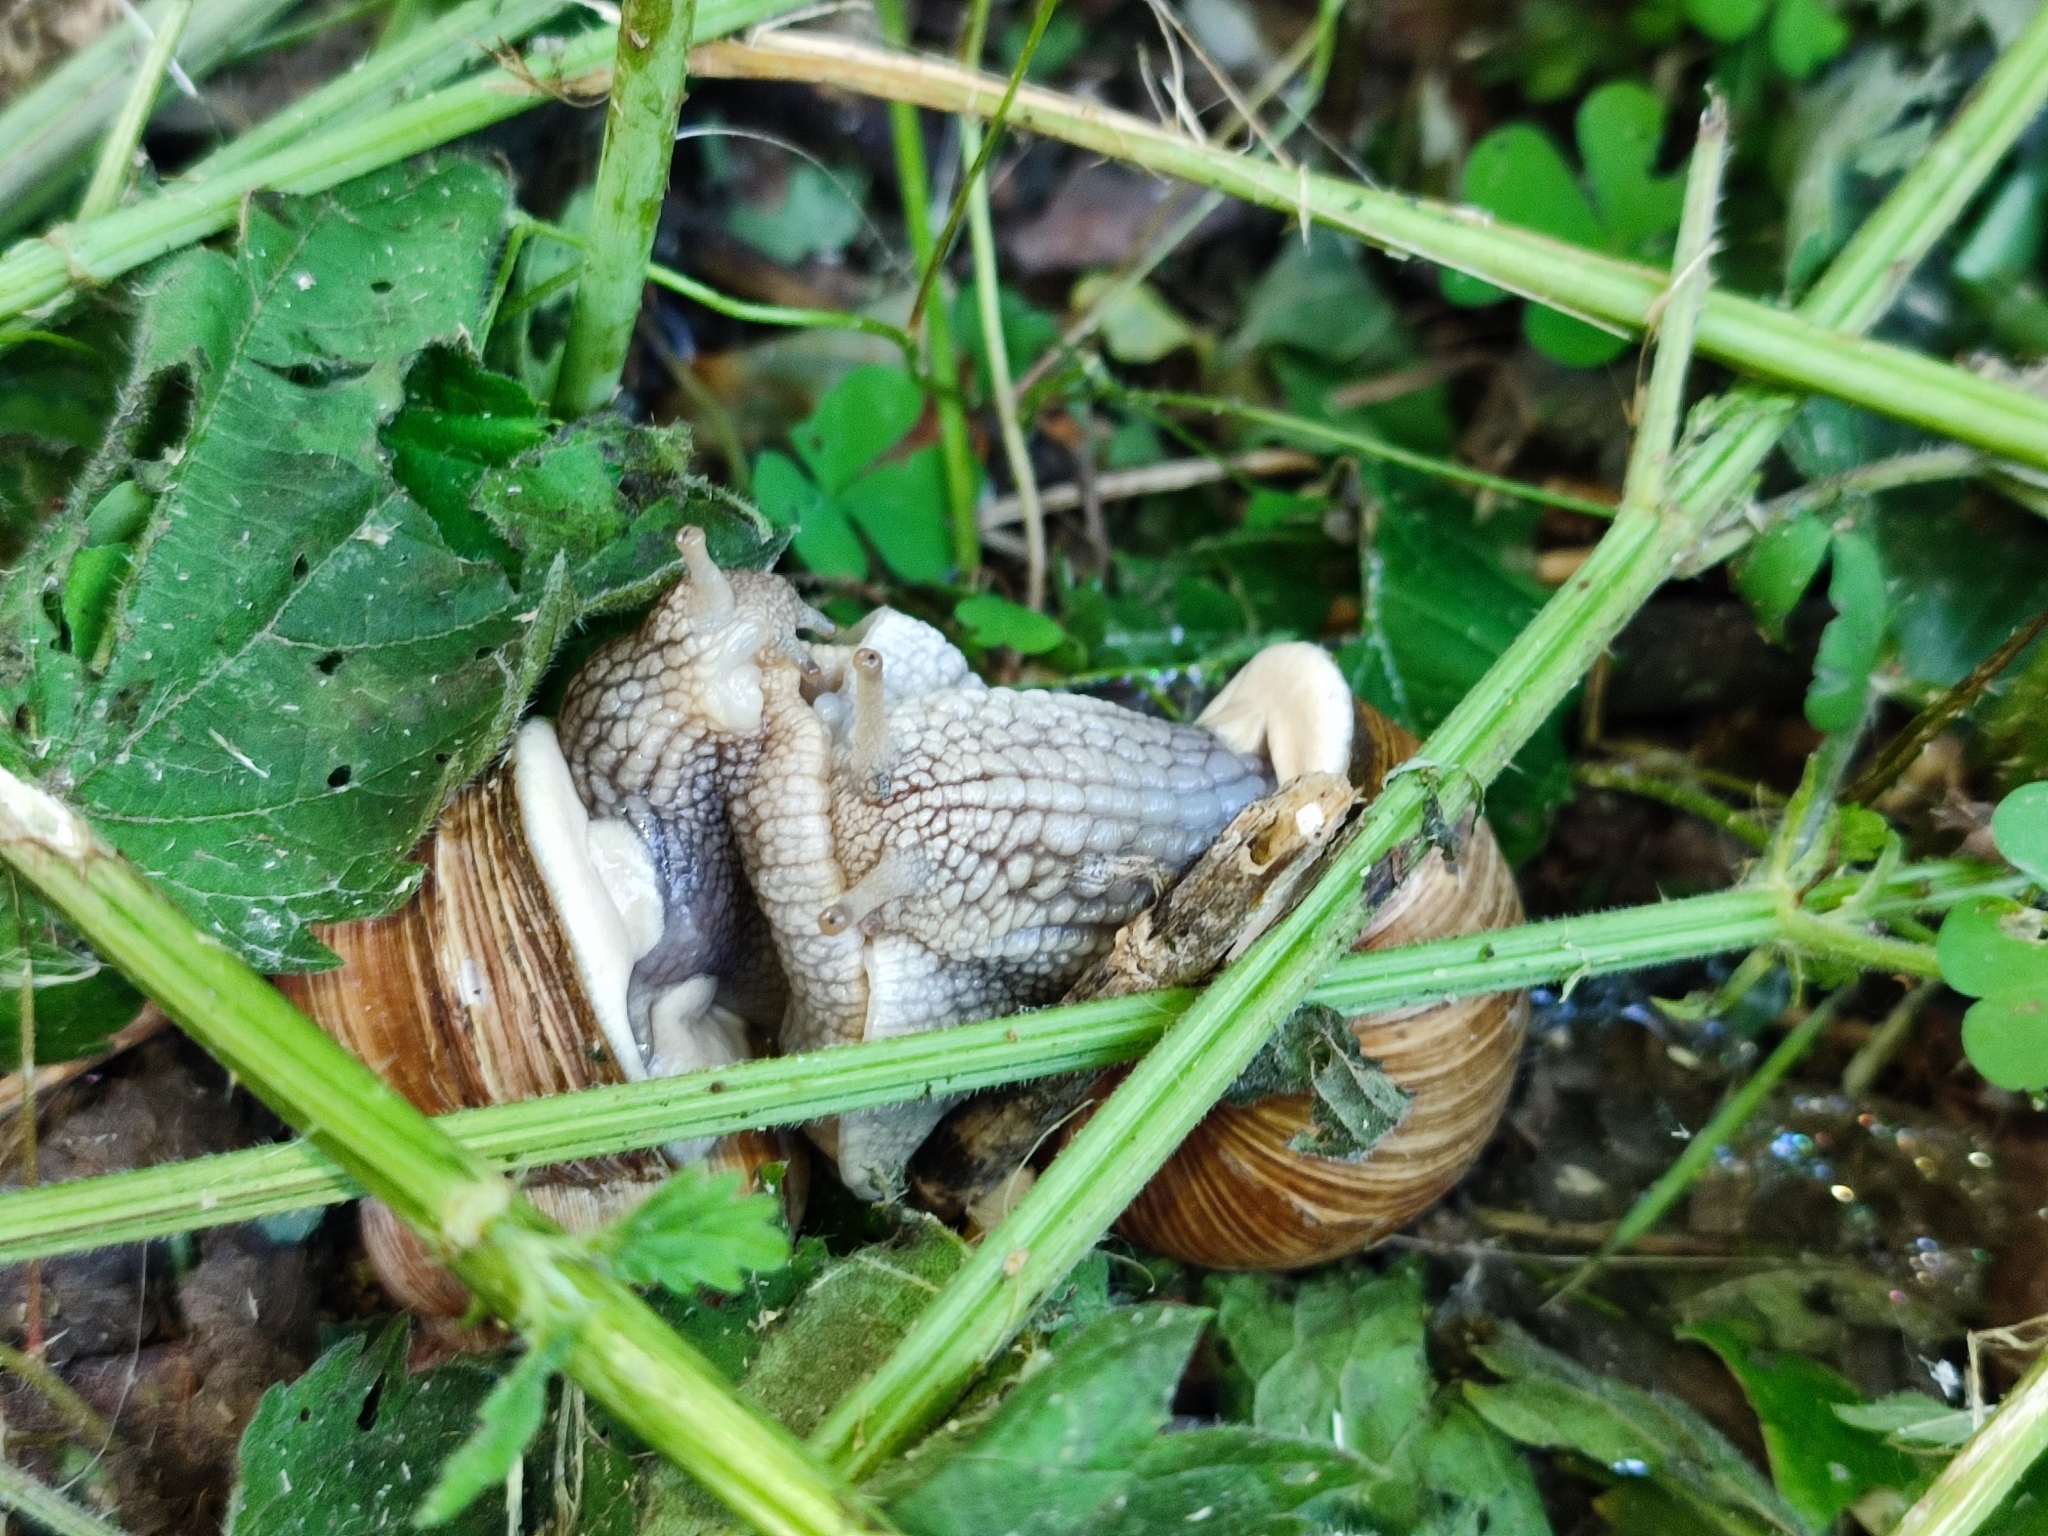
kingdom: Animalia
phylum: Mollusca
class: Gastropoda
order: Stylommatophora
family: Helicidae
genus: Helix
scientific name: Helix pomatia
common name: Roman snail
